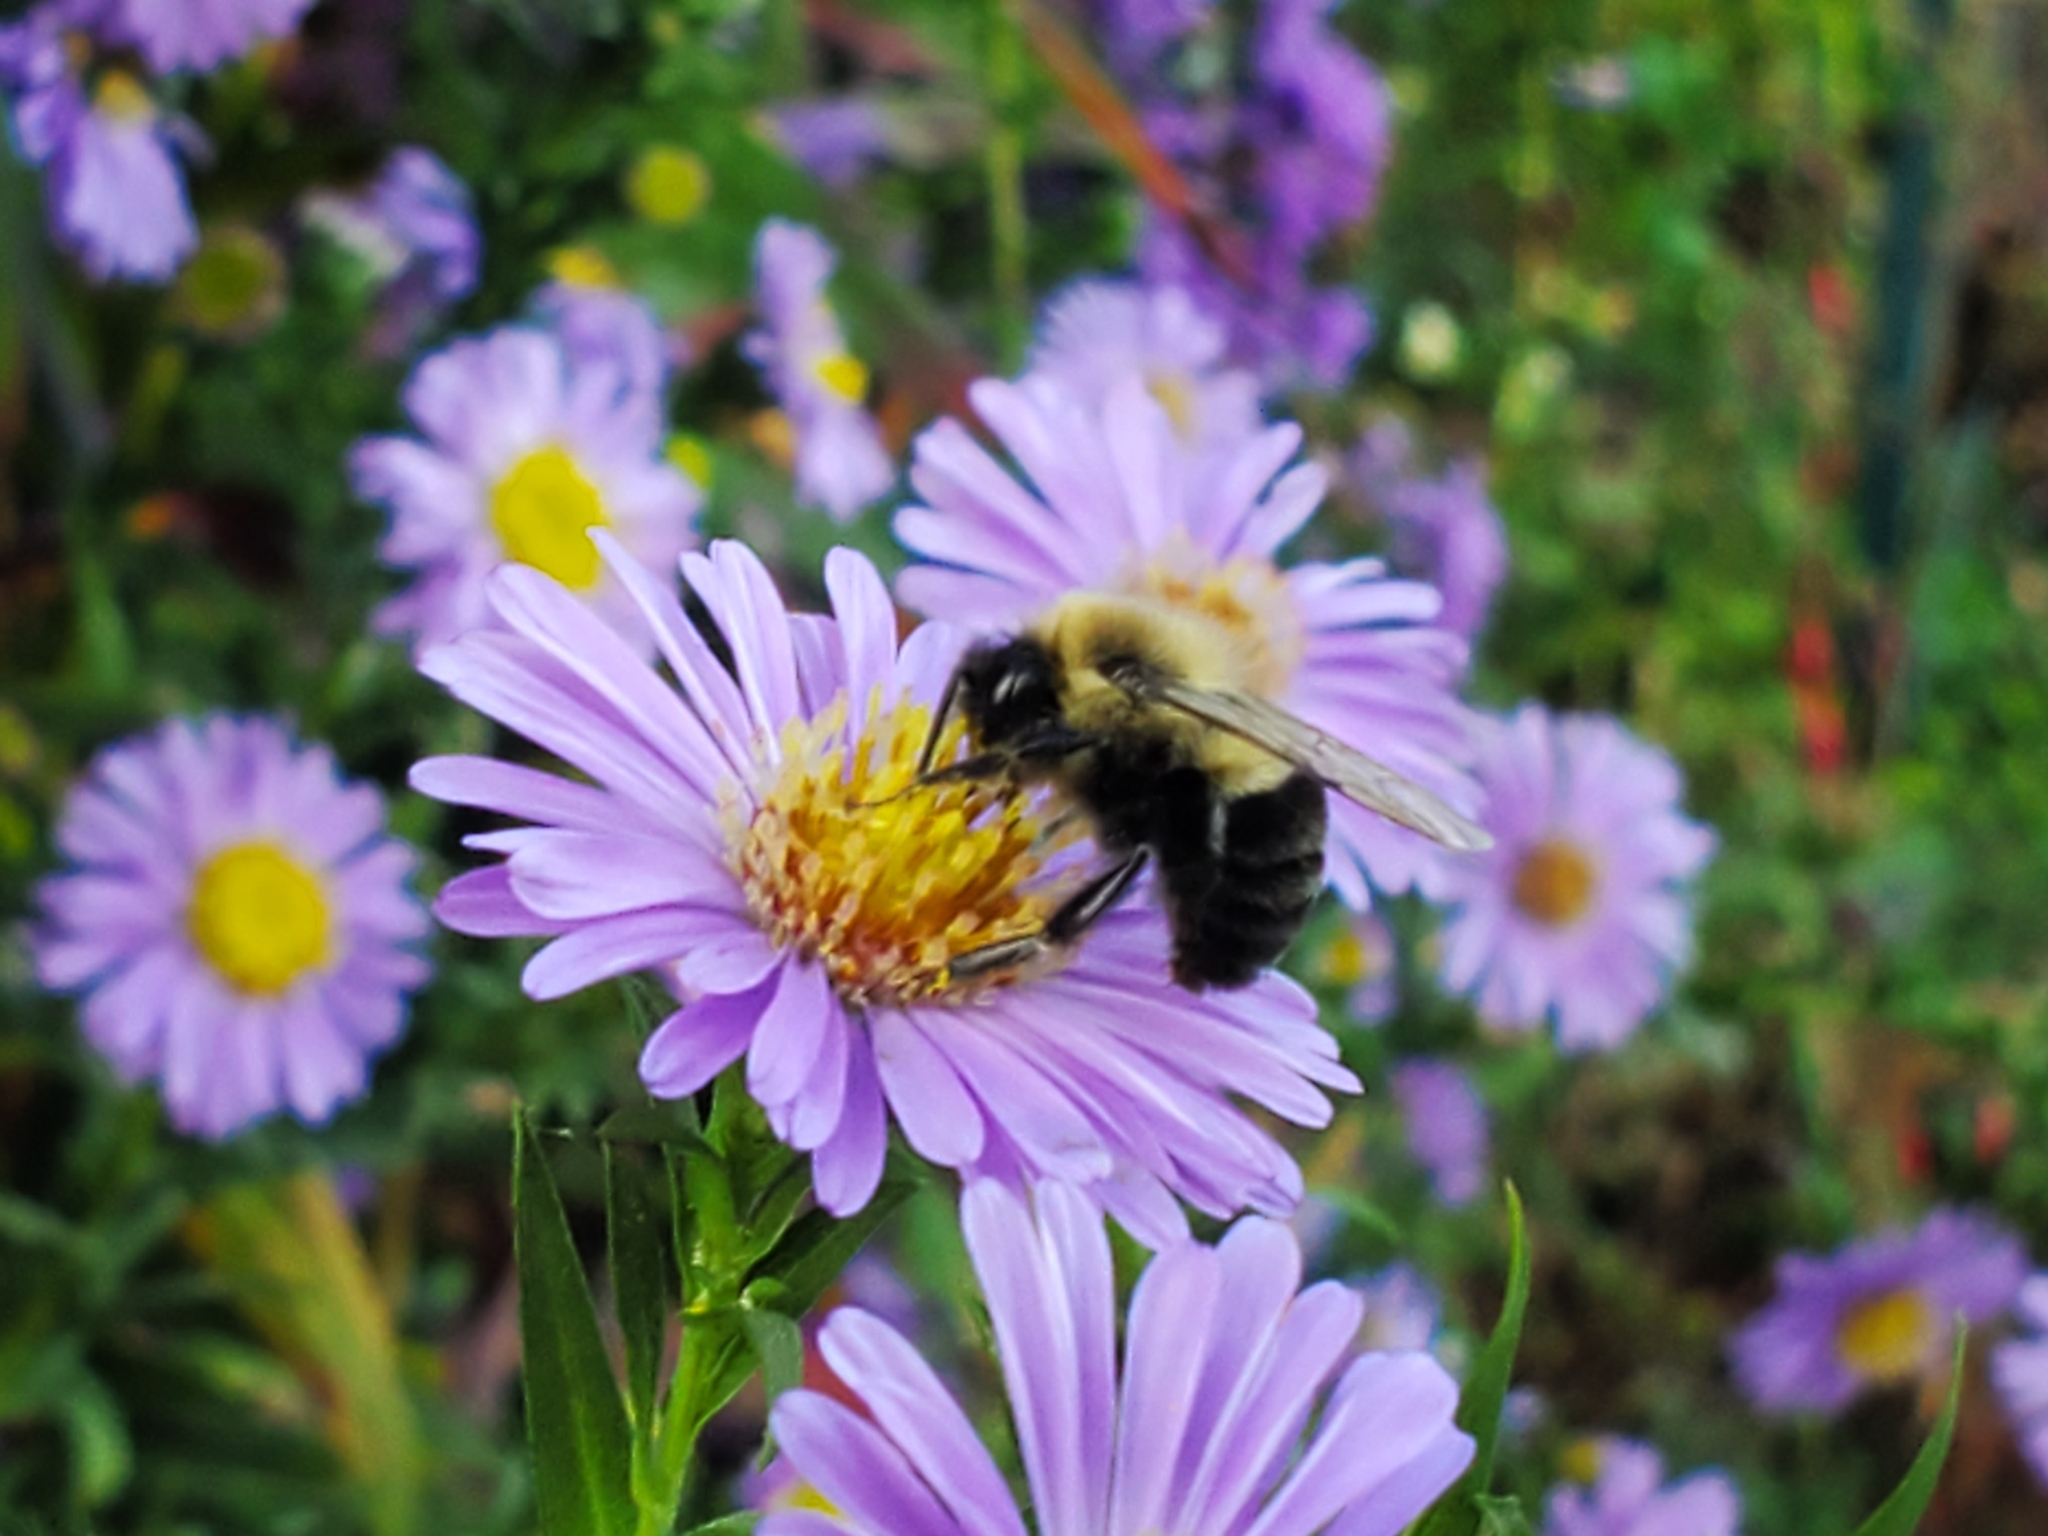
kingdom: Animalia
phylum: Arthropoda
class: Insecta
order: Hymenoptera
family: Apidae
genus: Bombus
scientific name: Bombus impatiens
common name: Common eastern bumble bee
